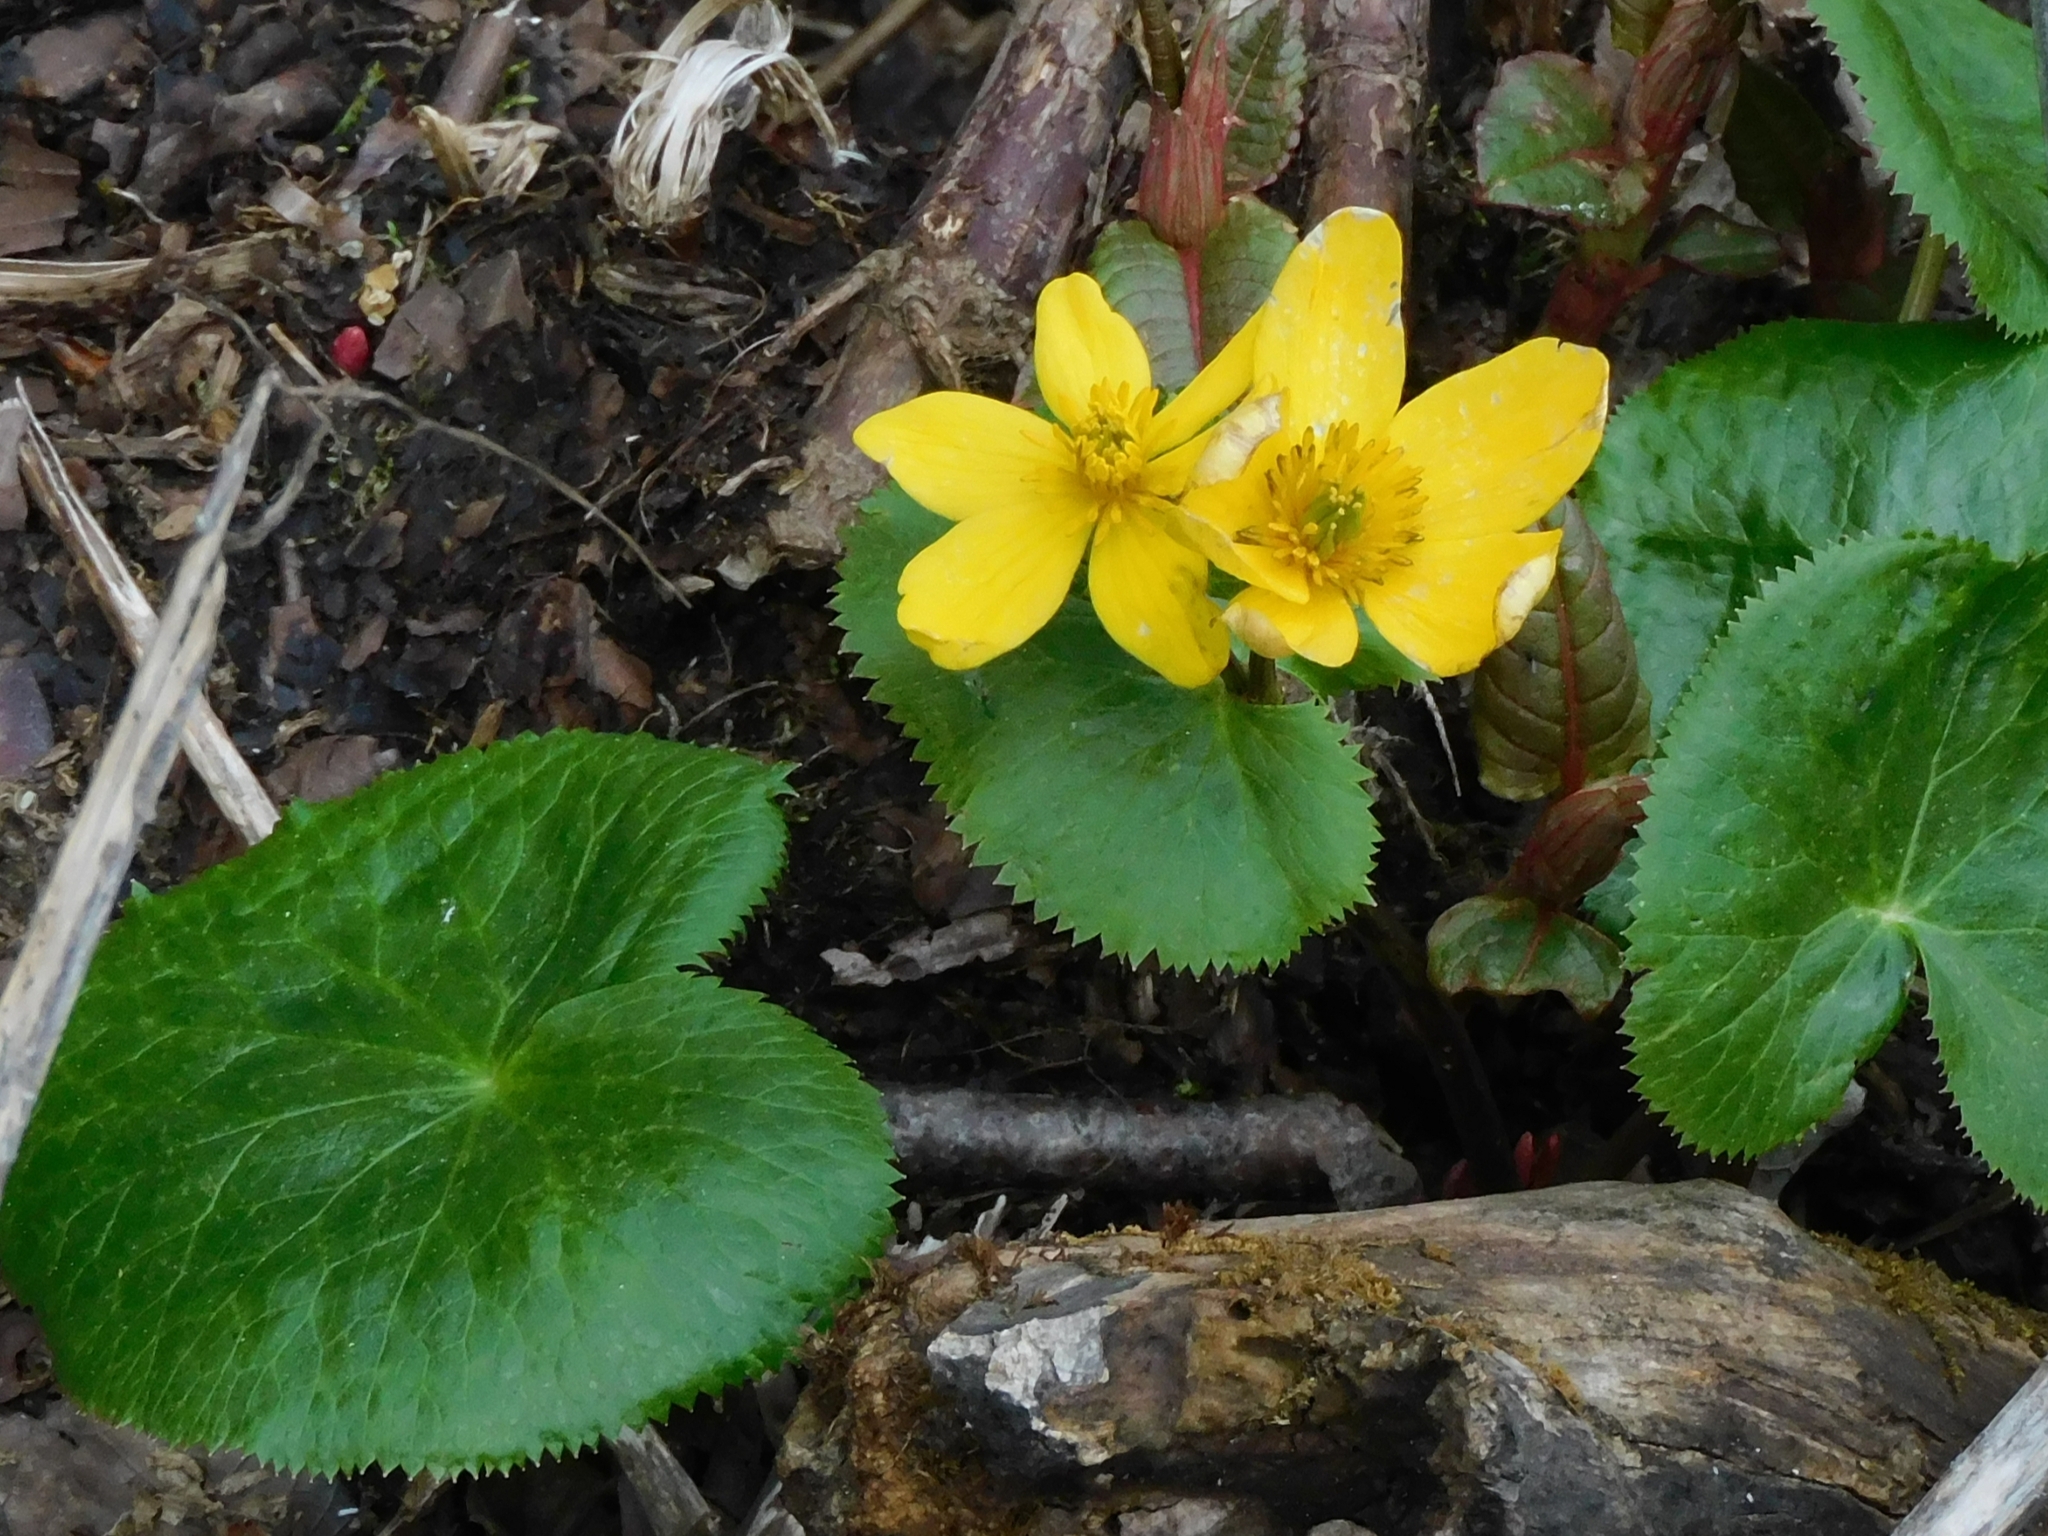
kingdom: Plantae
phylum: Tracheophyta
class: Magnoliopsida
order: Ranunculales
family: Ranunculaceae
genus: Caltha
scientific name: Caltha palustris
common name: Marsh marigold
